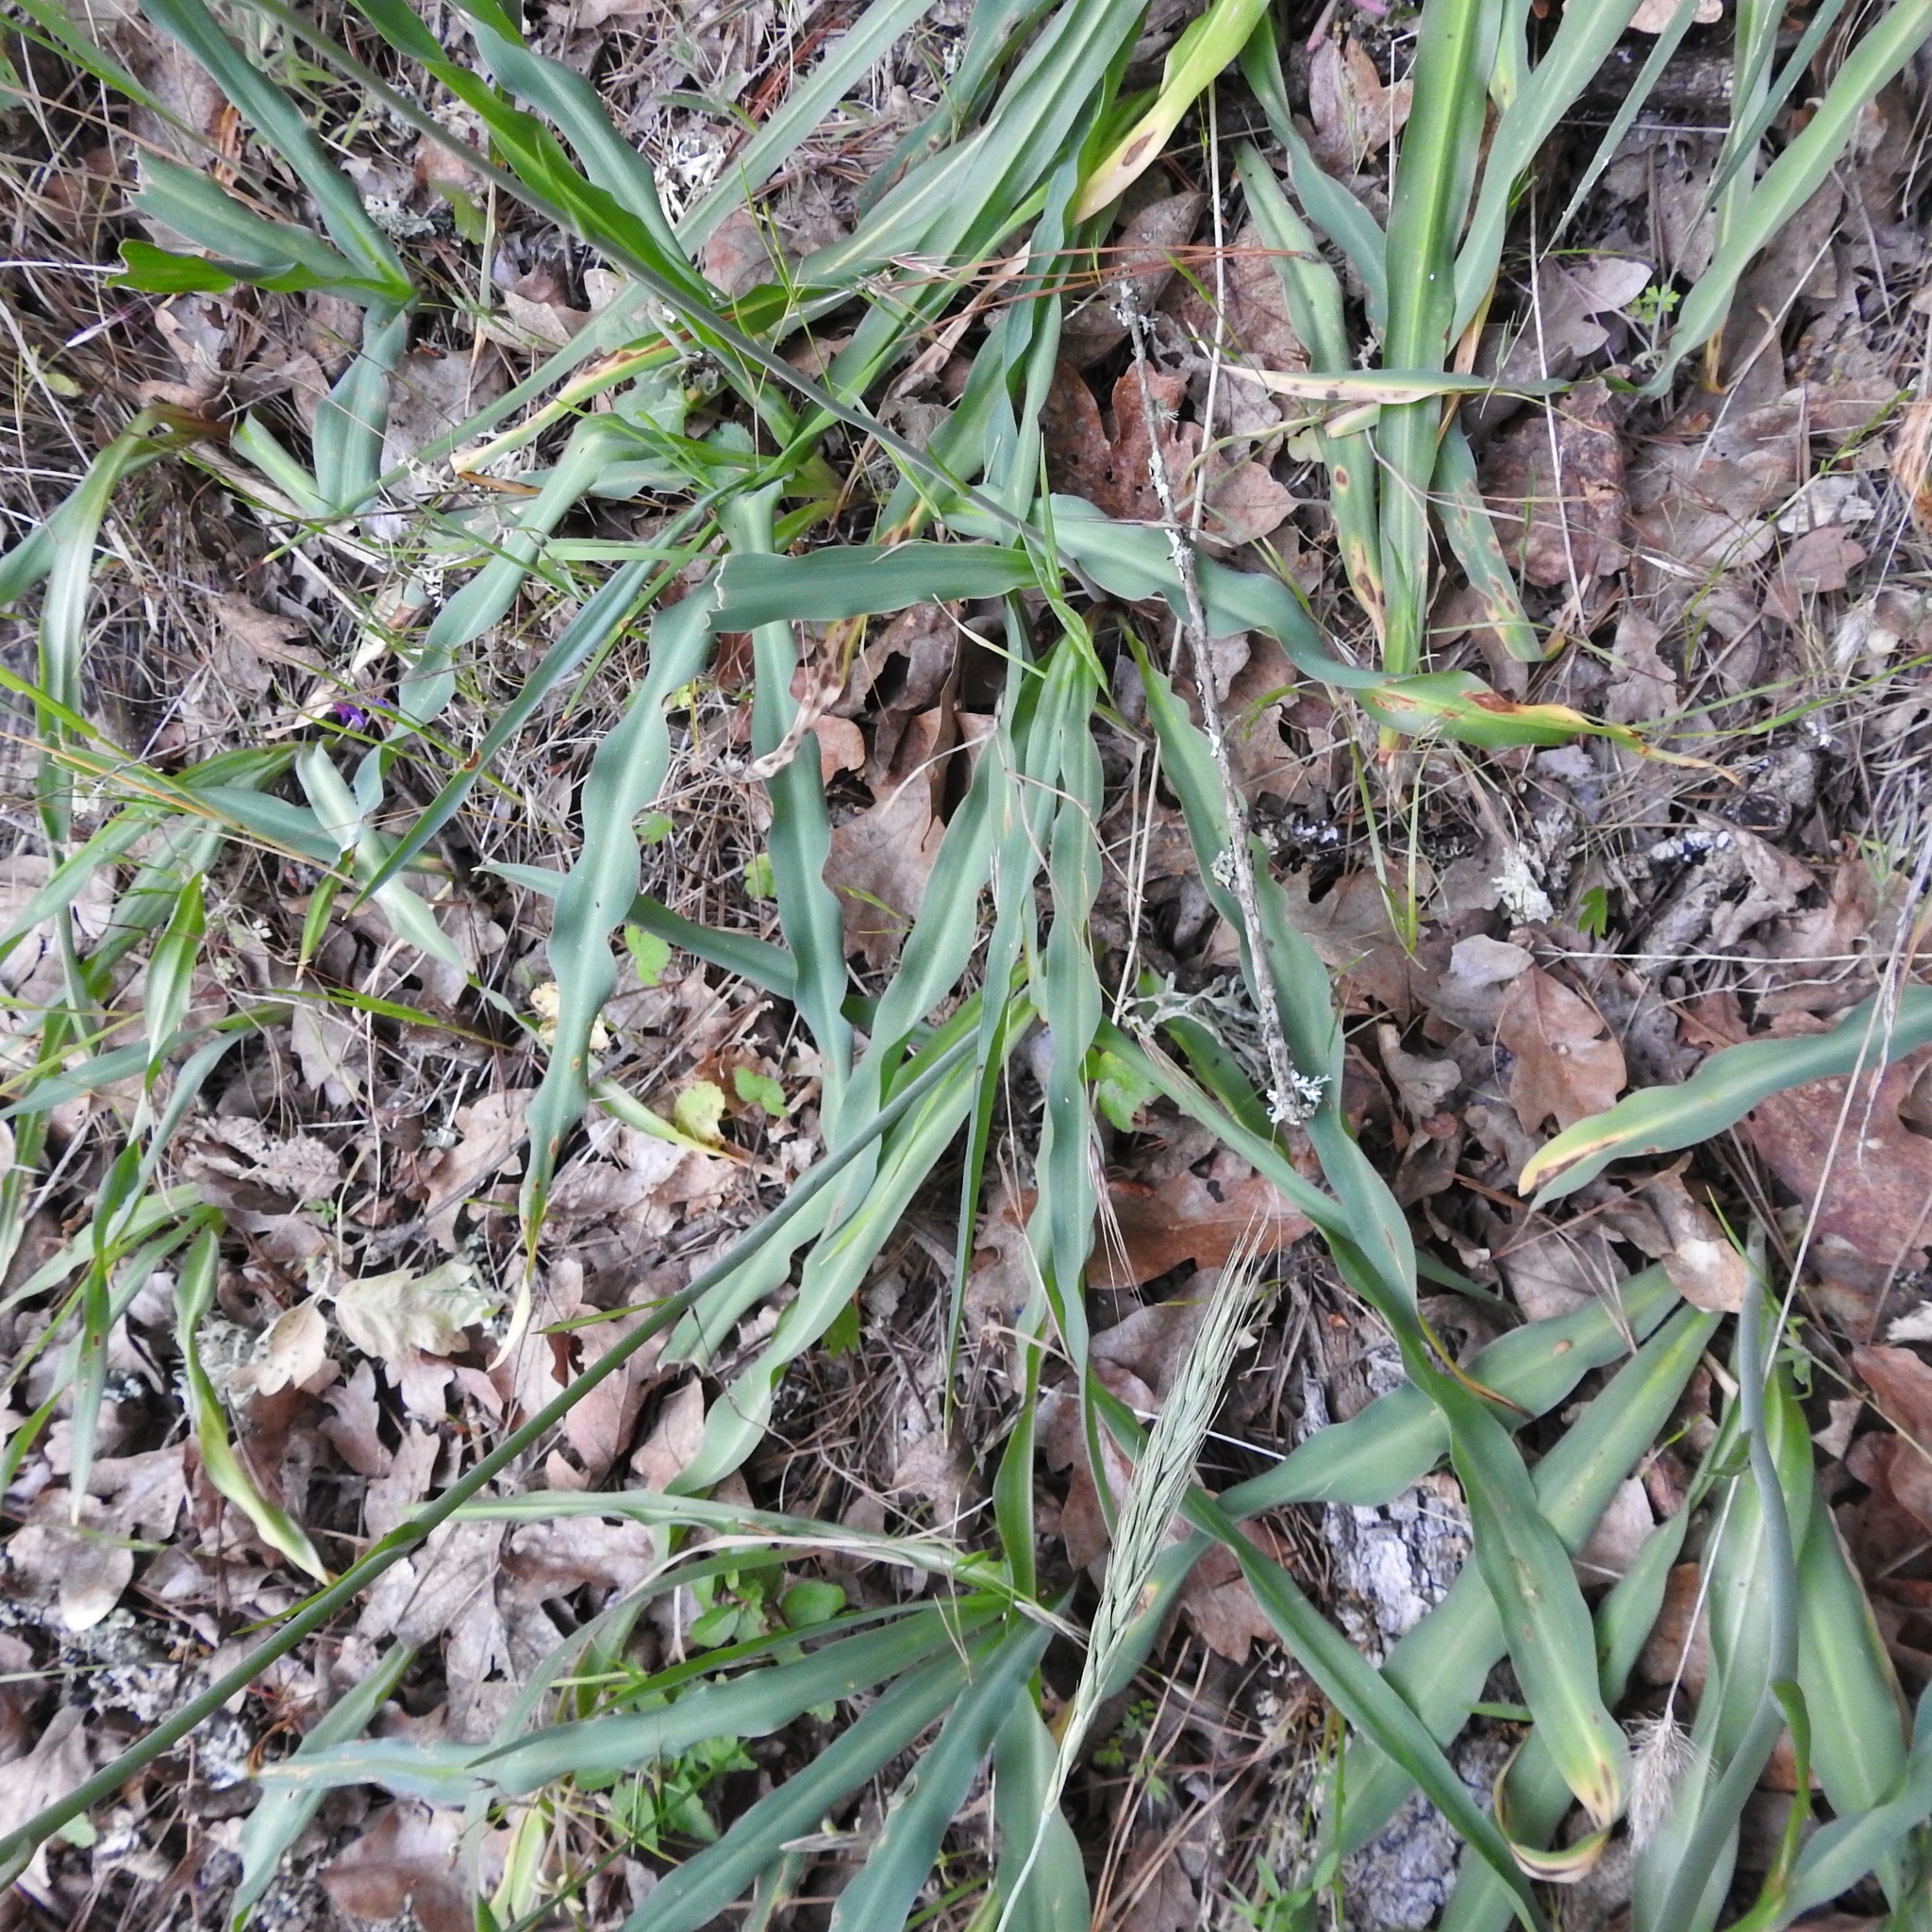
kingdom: Plantae
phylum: Tracheophyta
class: Liliopsida
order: Asparagales
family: Asparagaceae
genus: Chlorogalum
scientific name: Chlorogalum pomeridianum
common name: Amole
